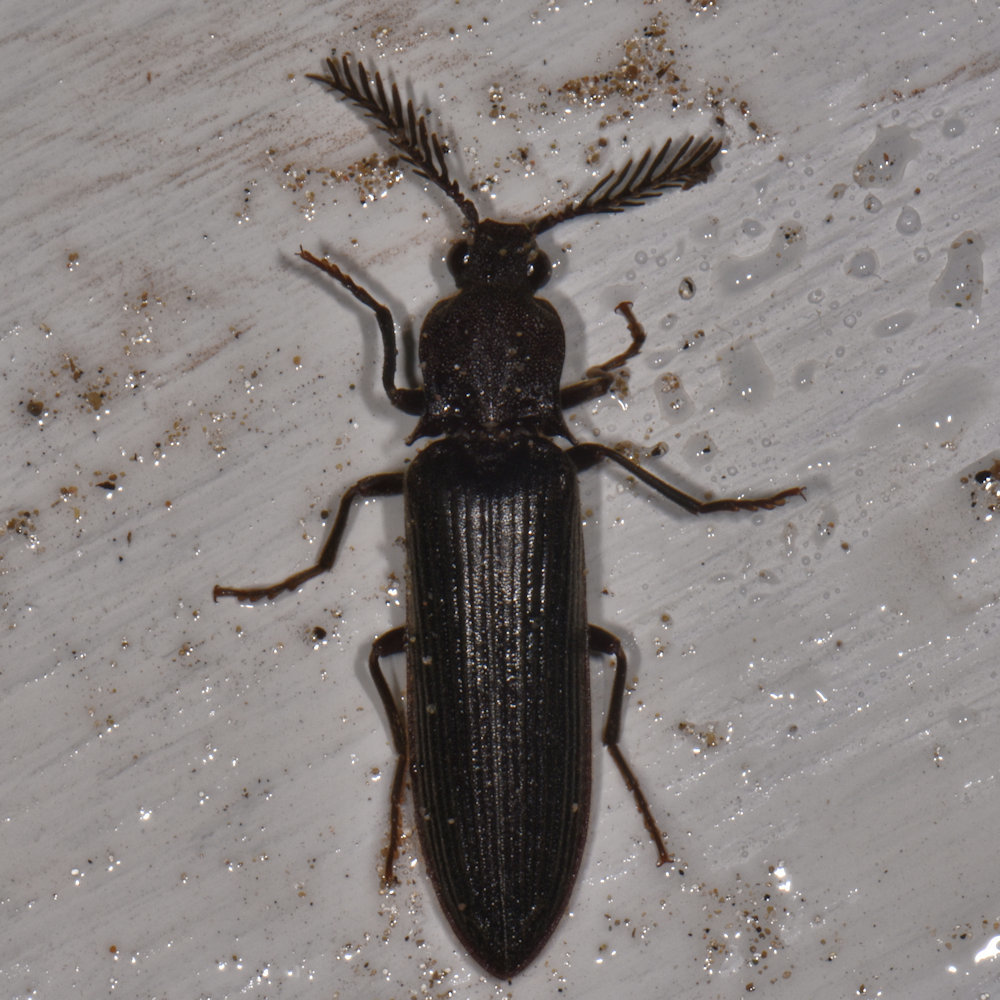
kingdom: Animalia
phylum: Arthropoda
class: Insecta
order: Coleoptera
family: Elateridae
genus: Pityobius
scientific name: Pityobius anguinus
